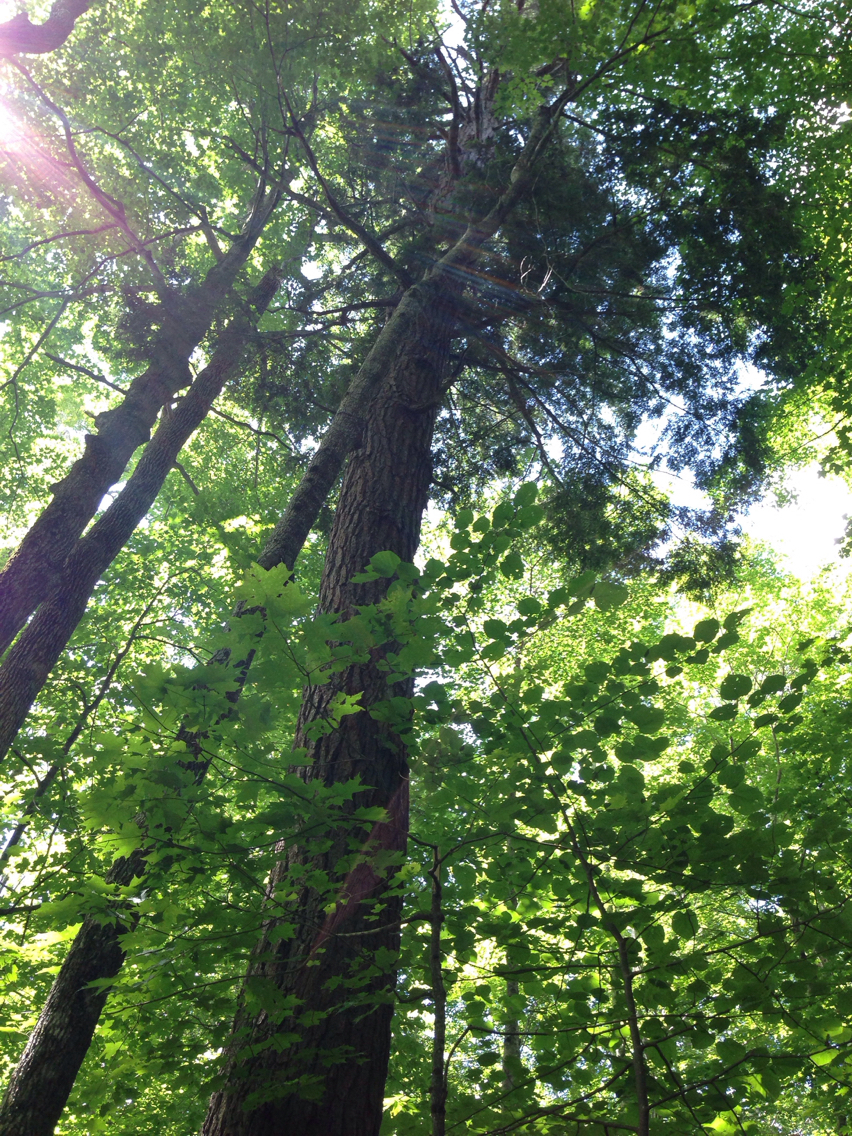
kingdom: Plantae
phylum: Tracheophyta
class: Pinopsida
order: Pinales
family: Pinaceae
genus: Tsuga
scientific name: Tsuga canadensis
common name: Eastern hemlock
